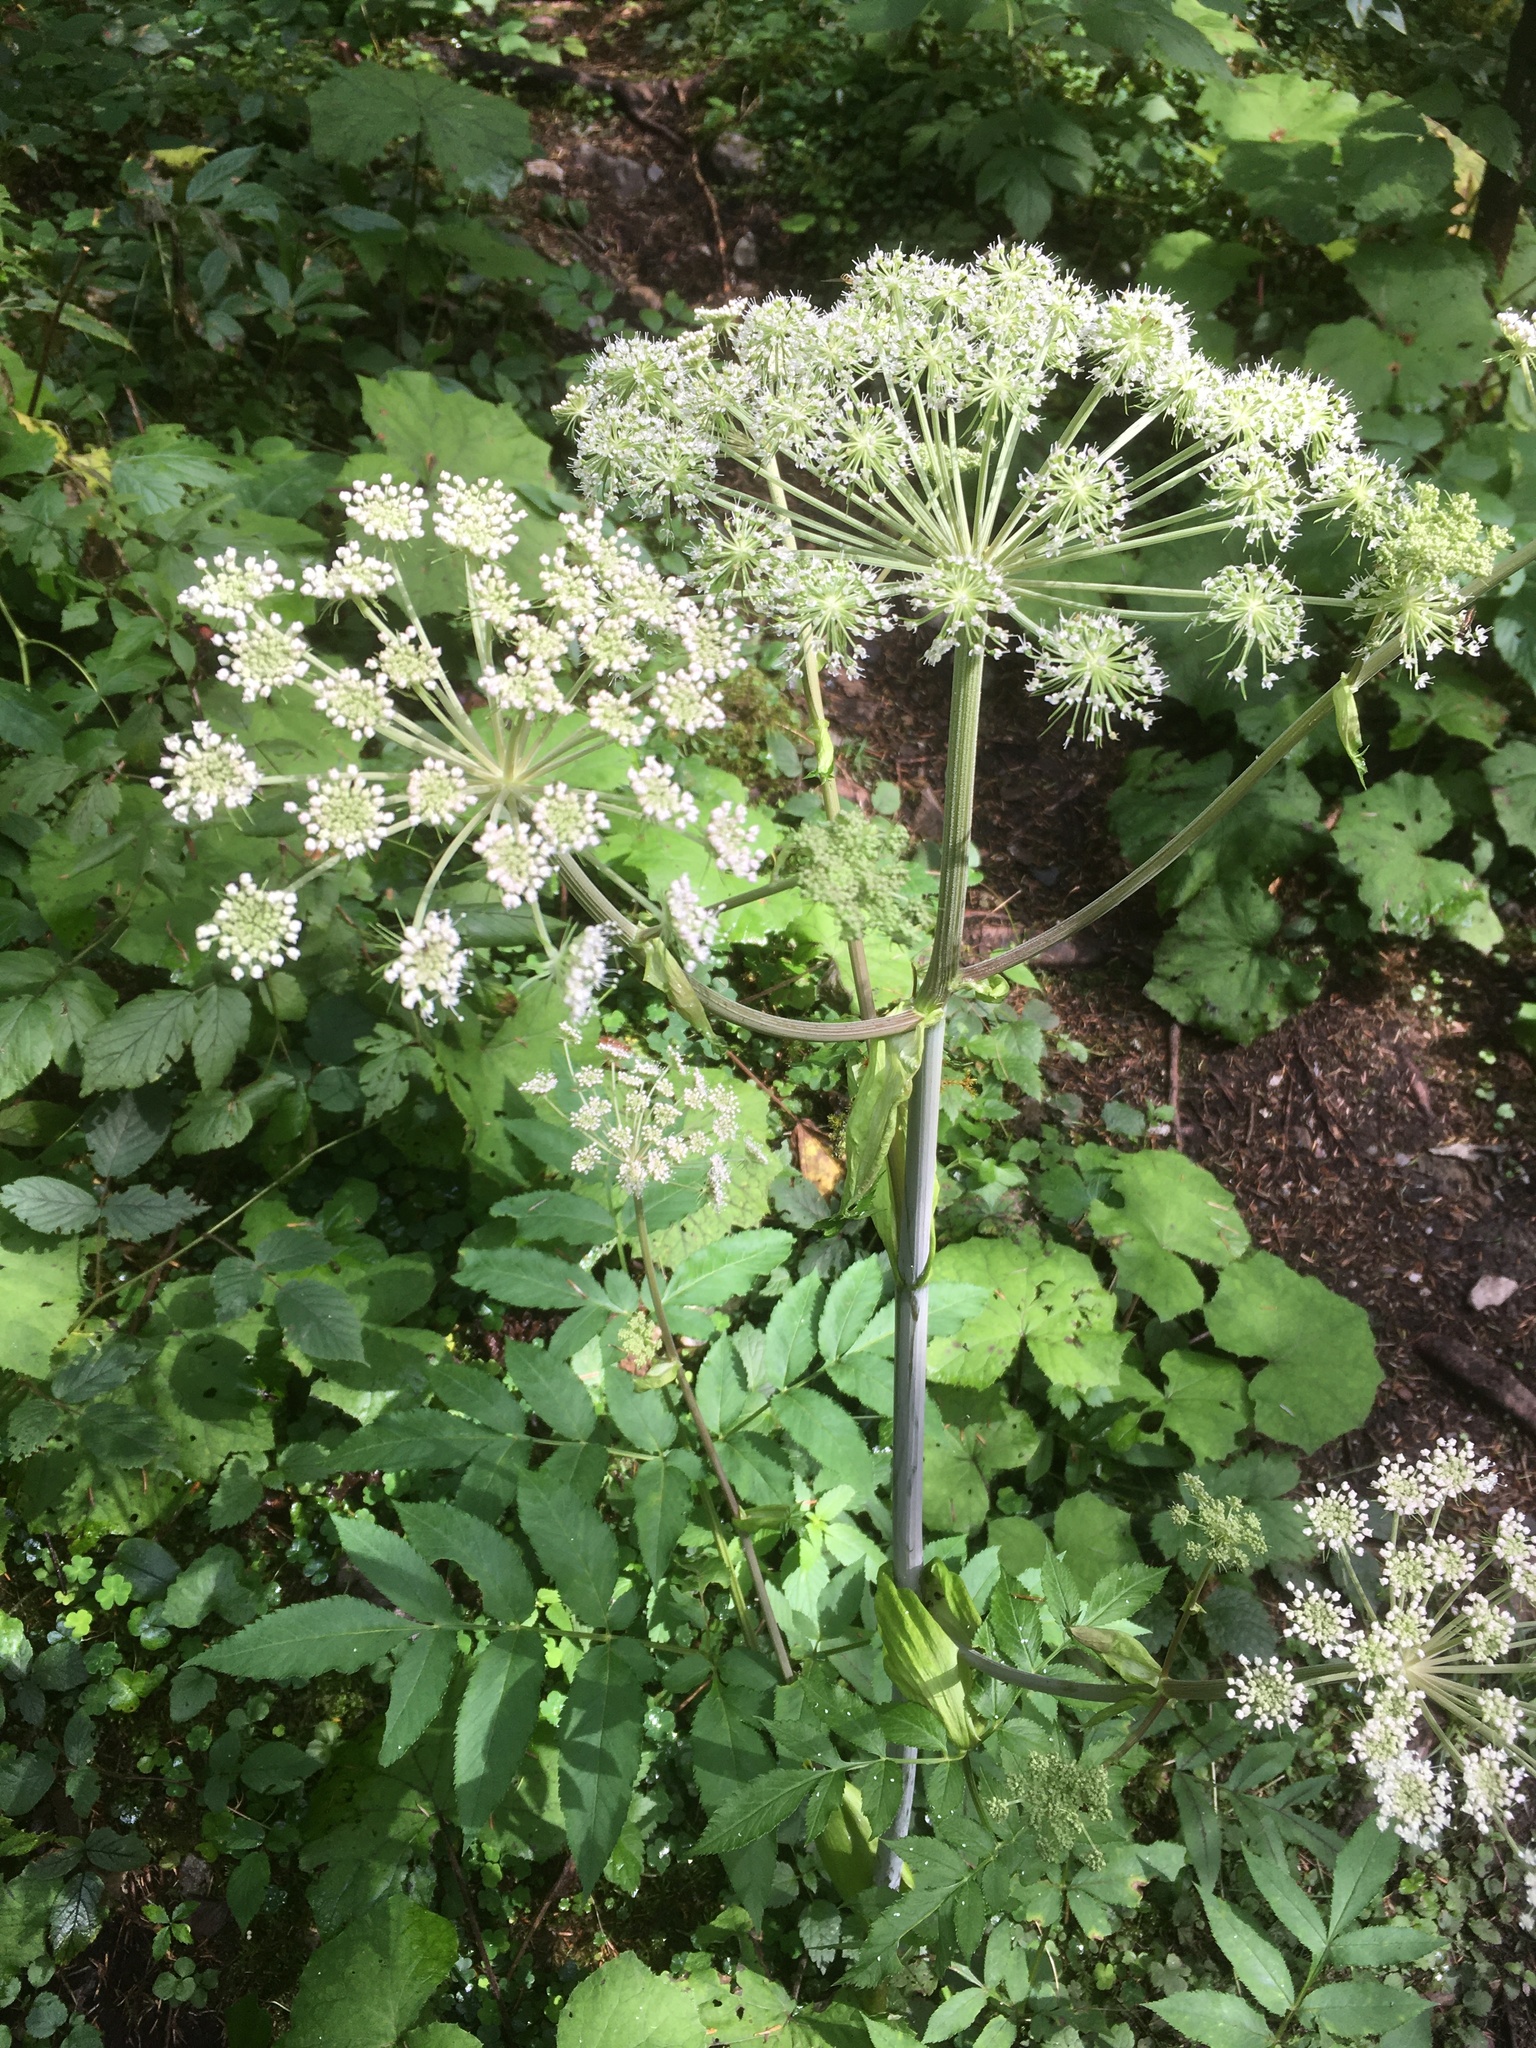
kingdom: Plantae
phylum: Tracheophyta
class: Magnoliopsida
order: Apiales
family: Apiaceae
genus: Angelica
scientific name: Angelica sylvestris
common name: Wild angelica
